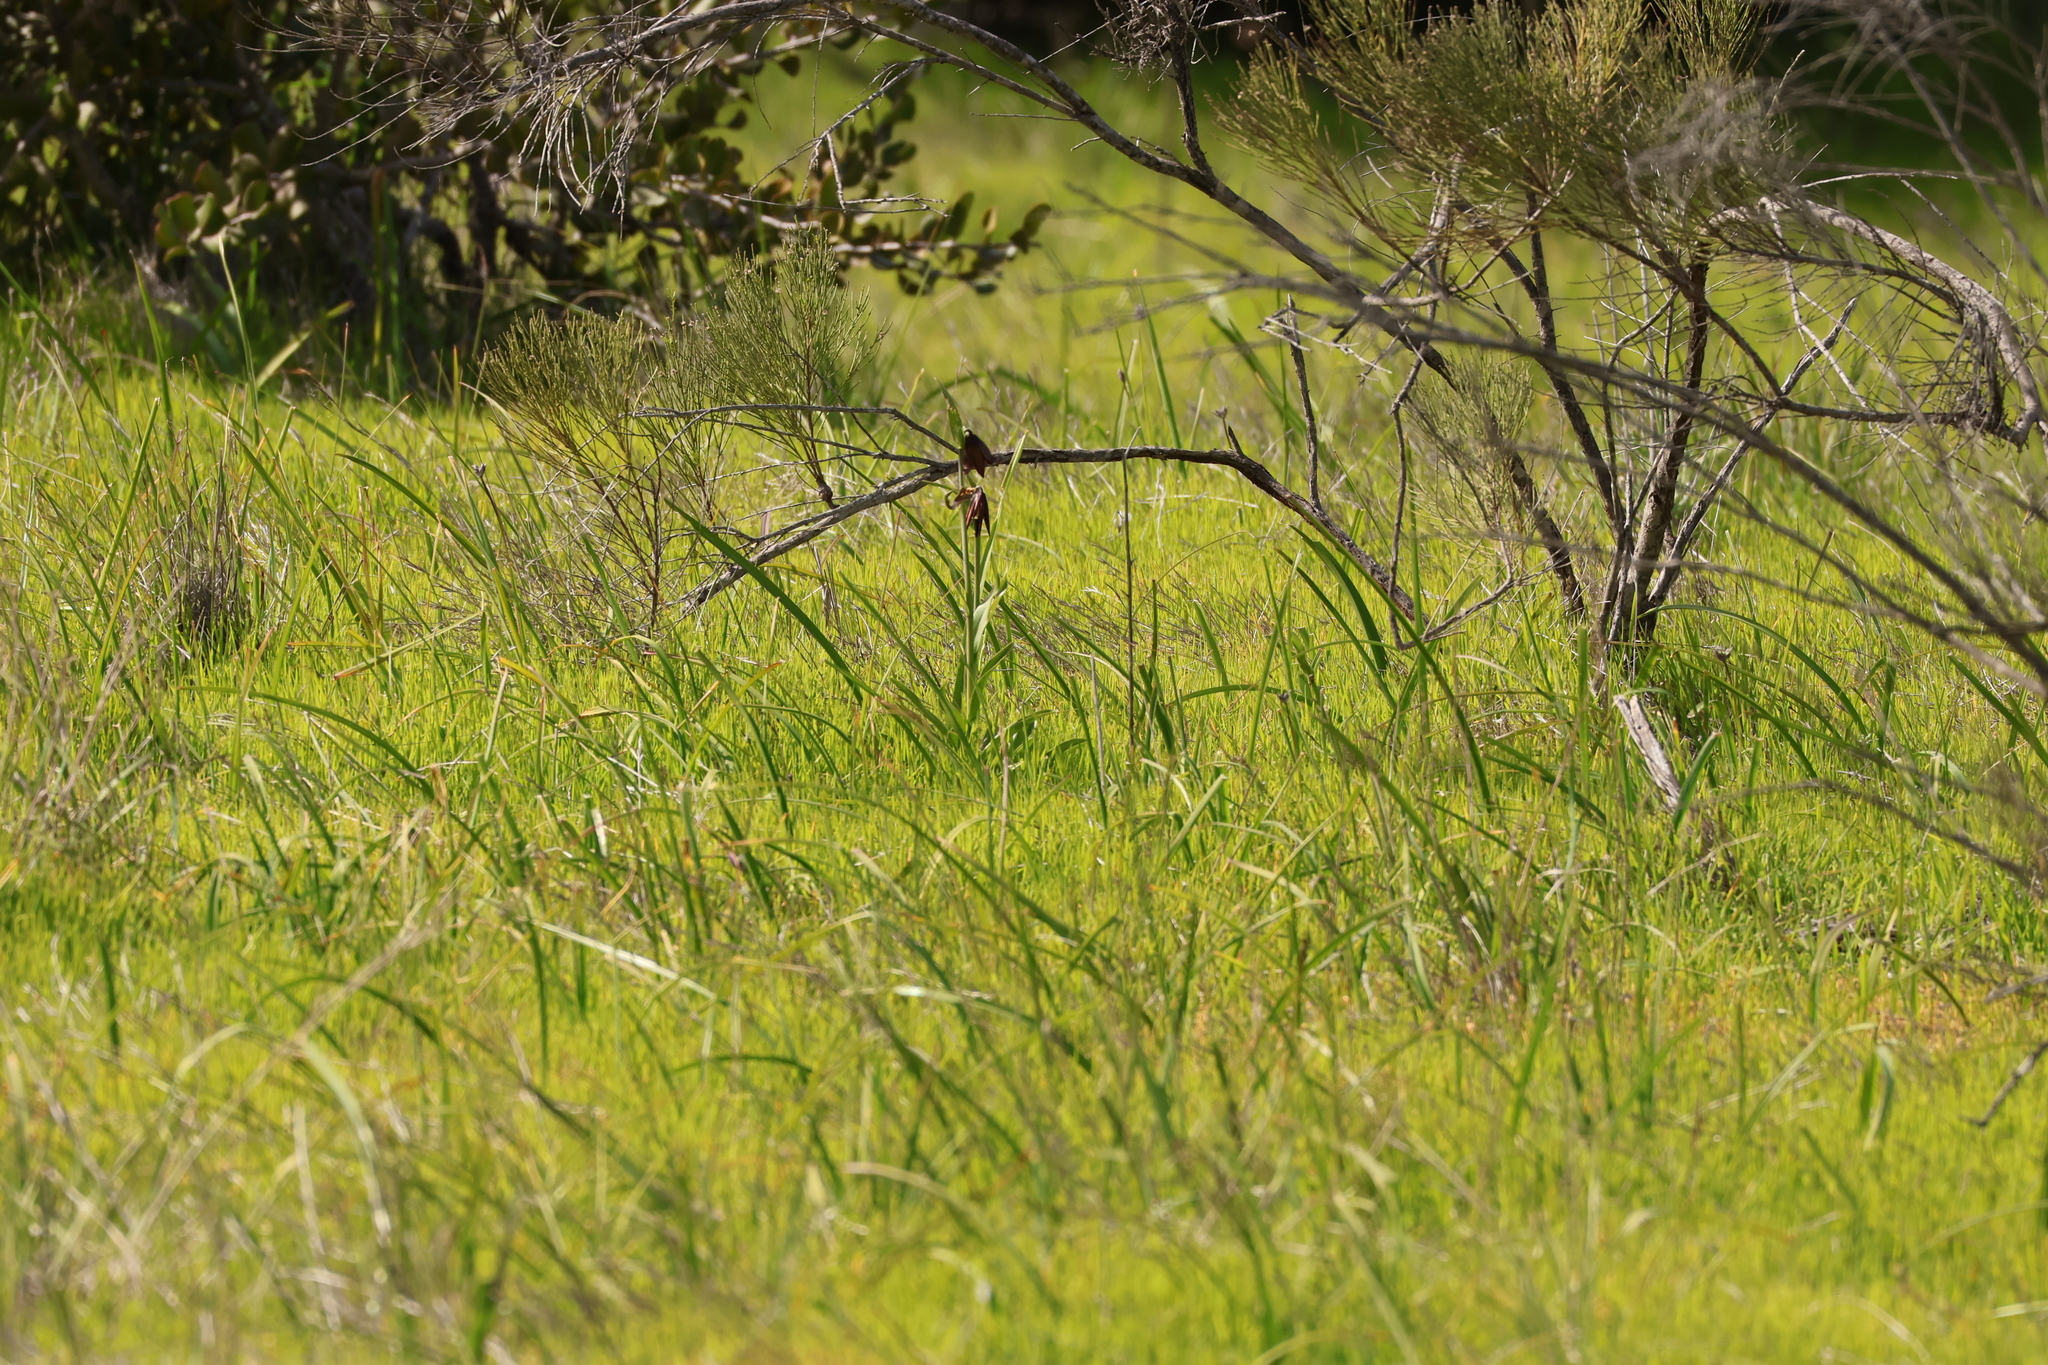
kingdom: Plantae
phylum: Tracheophyta
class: Liliopsida
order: Liliales
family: Liliaceae
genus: Fritillaria
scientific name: Fritillaria biflora
